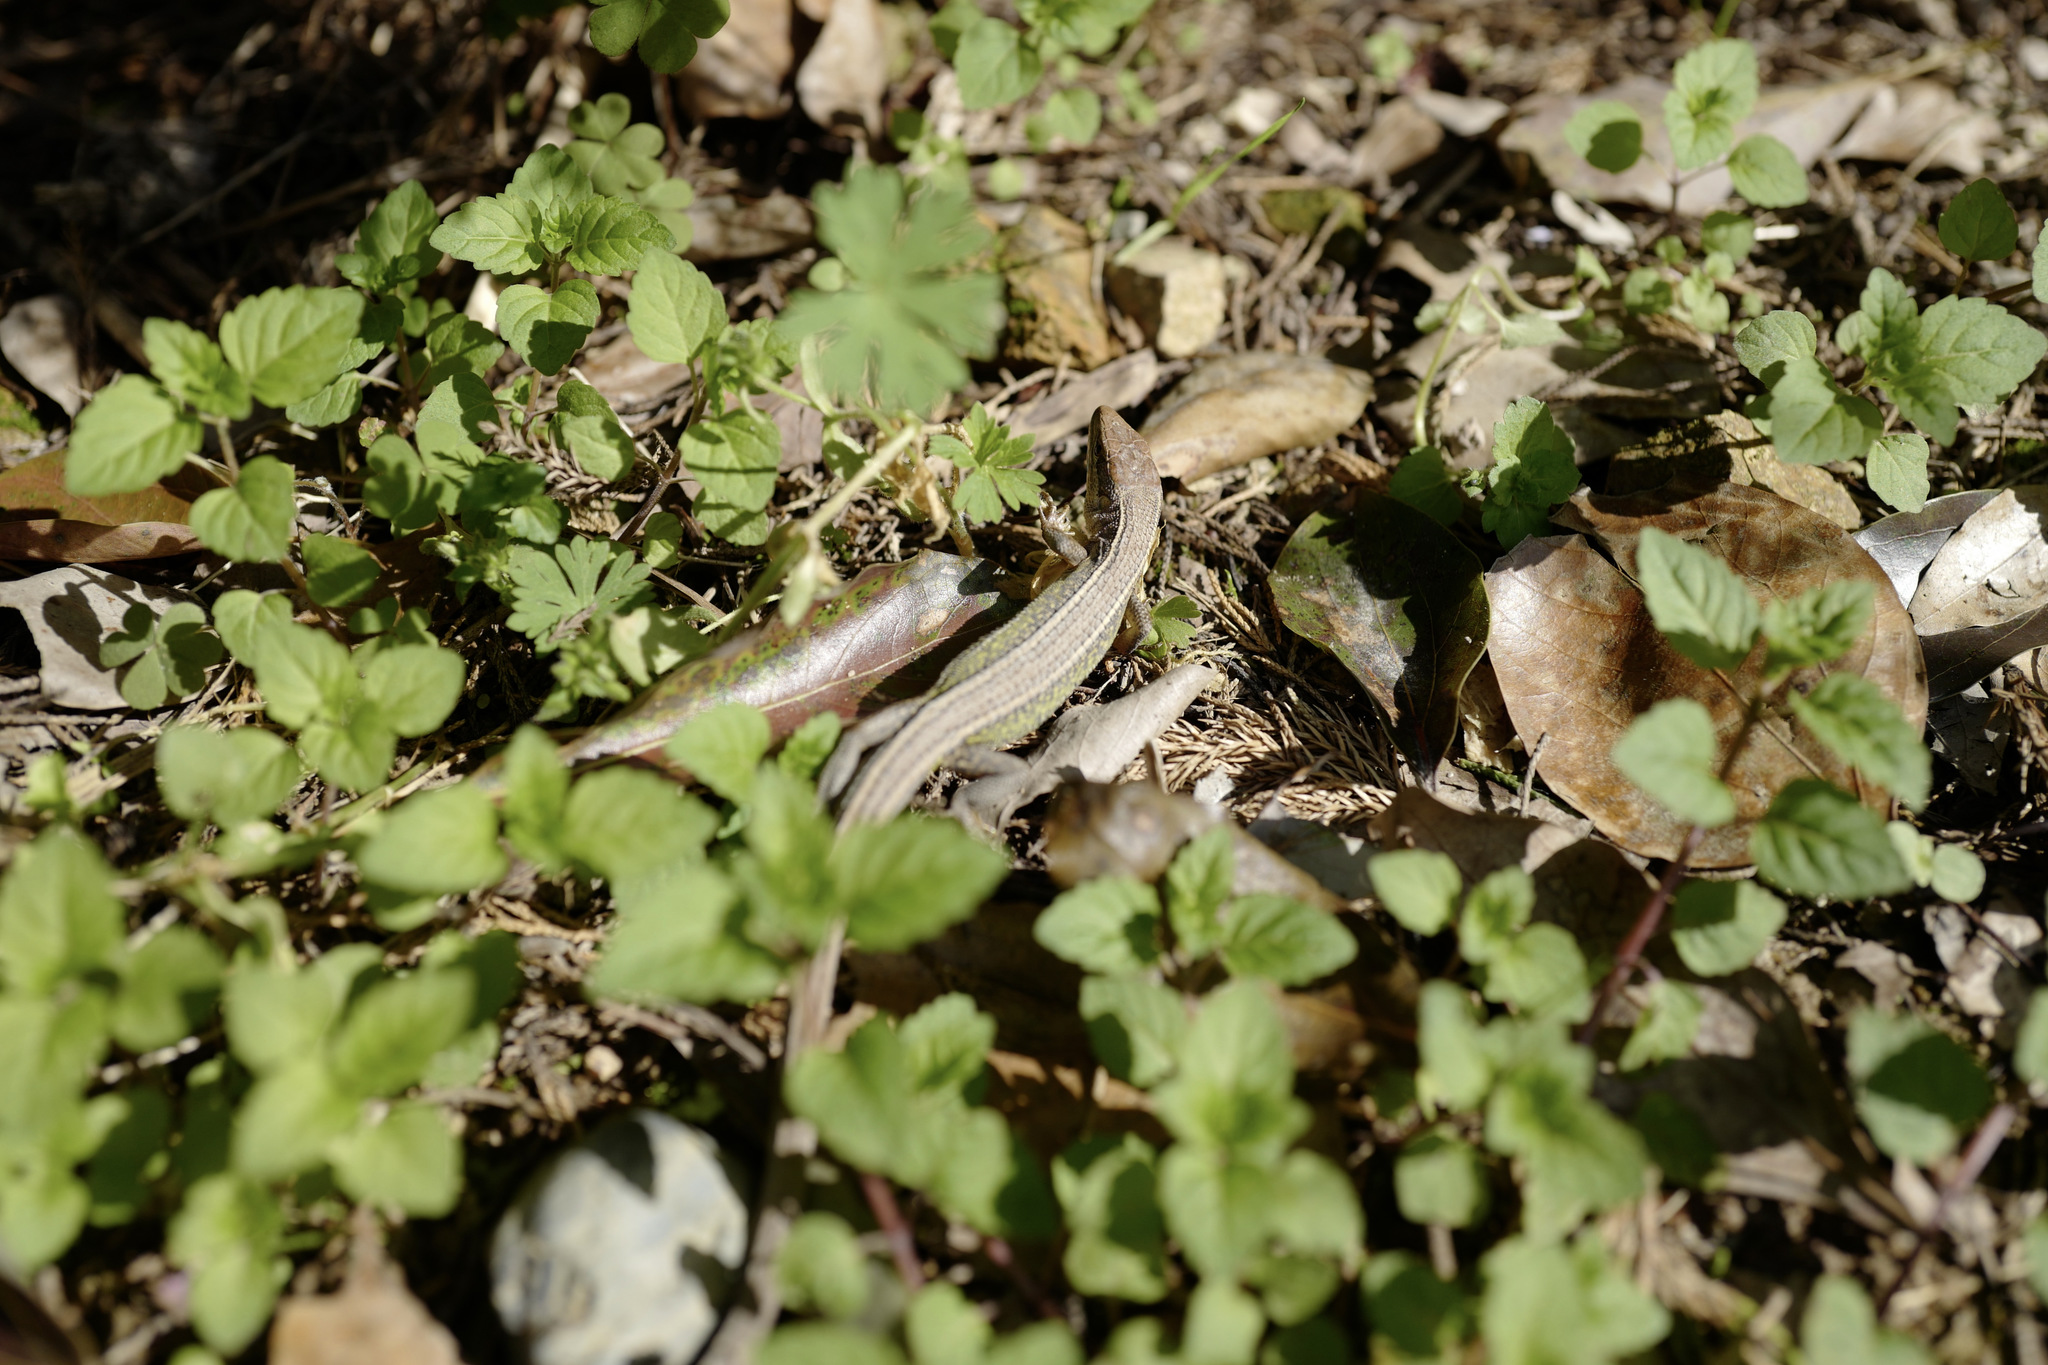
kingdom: Animalia
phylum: Chordata
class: Squamata
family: Lacertidae
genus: Takydromus
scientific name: Takydromus septentrionalis
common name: China grass lizard
